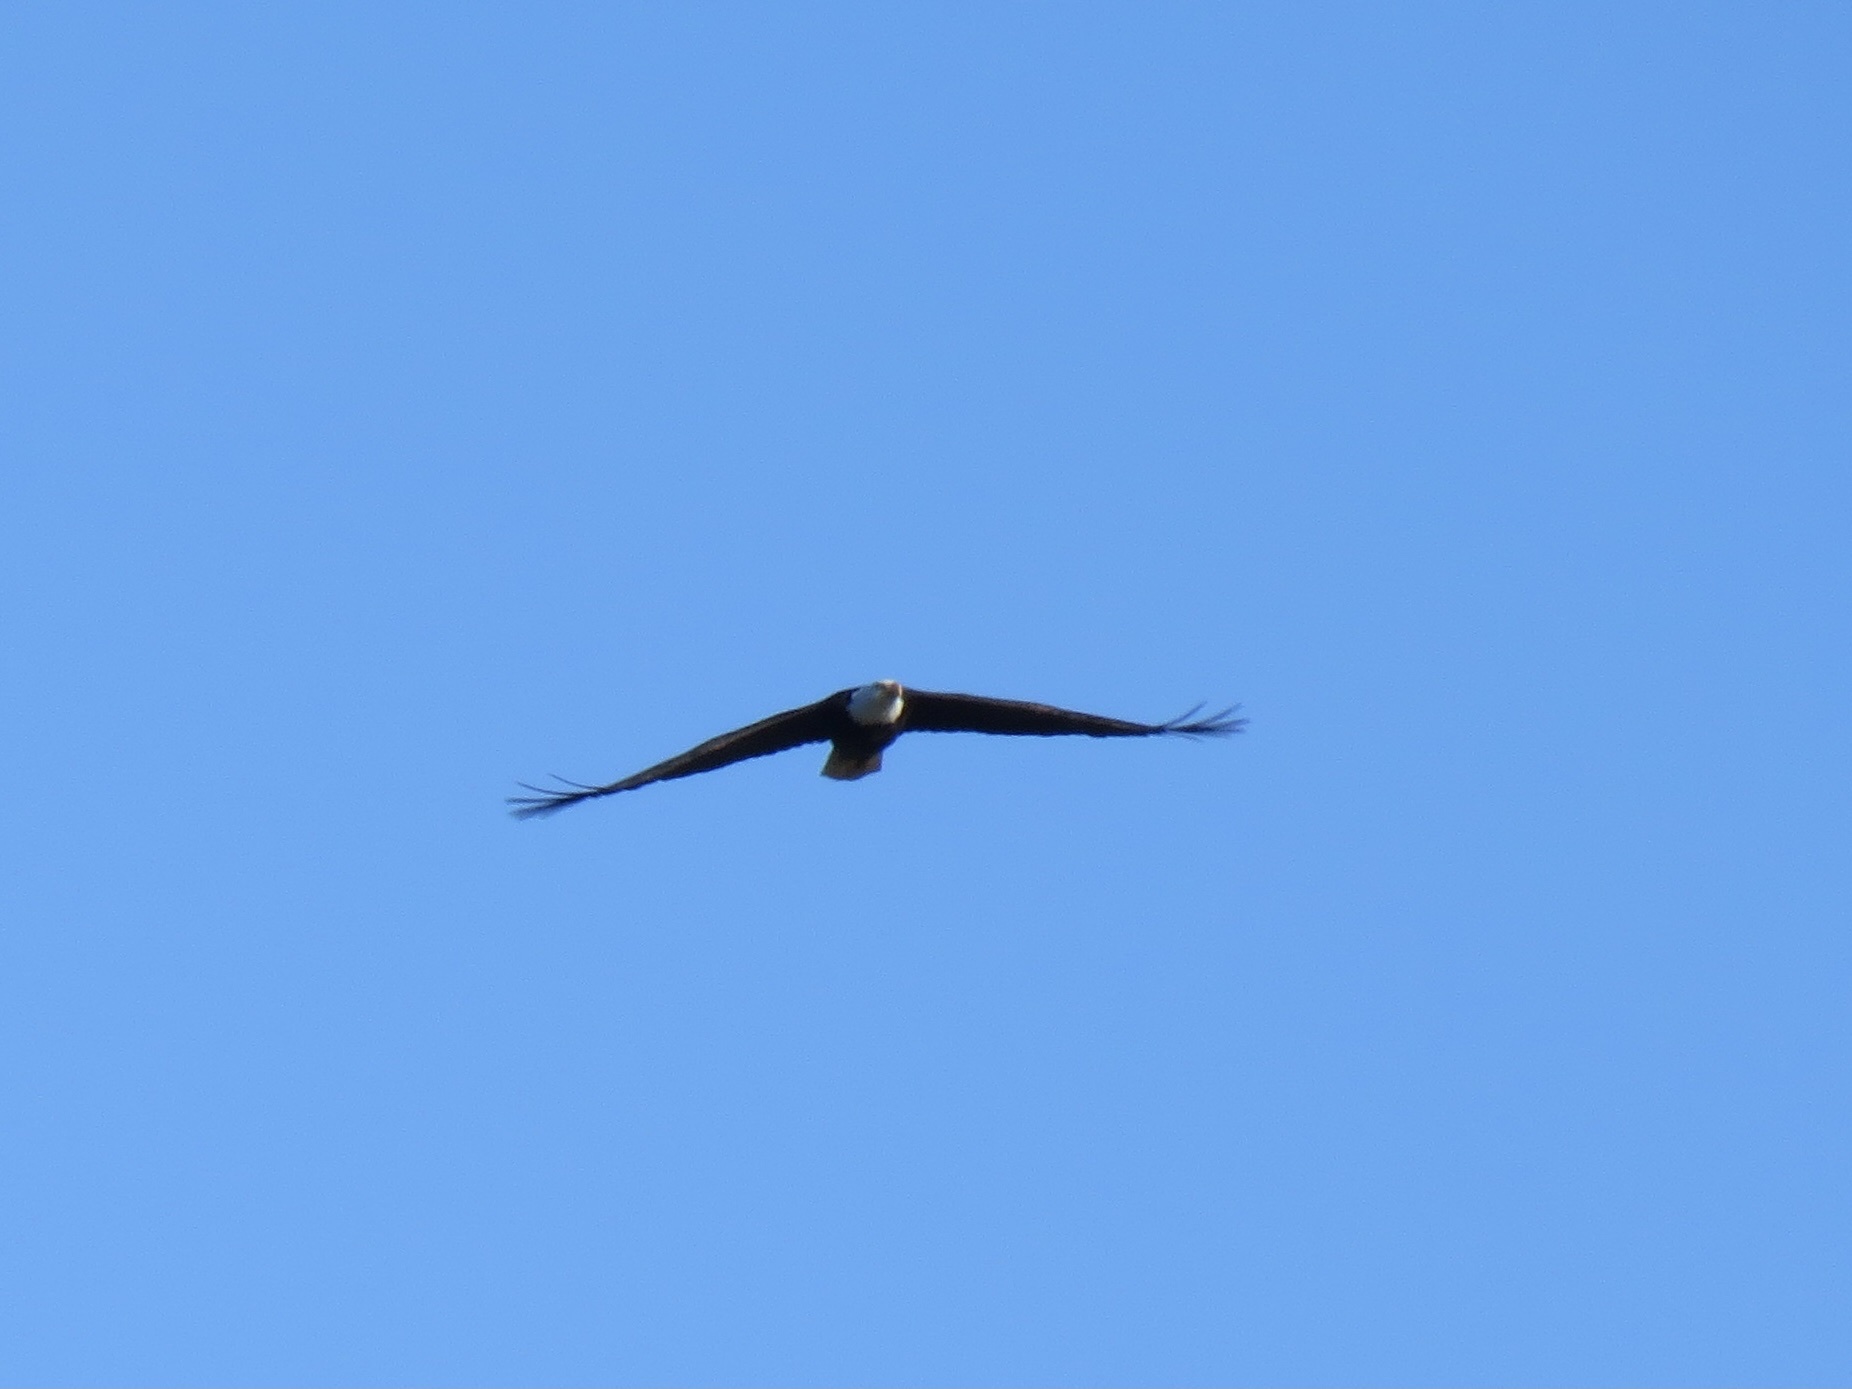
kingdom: Animalia
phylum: Chordata
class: Aves
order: Accipitriformes
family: Accipitridae
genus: Haliaeetus
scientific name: Haliaeetus leucocephalus
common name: Bald eagle
